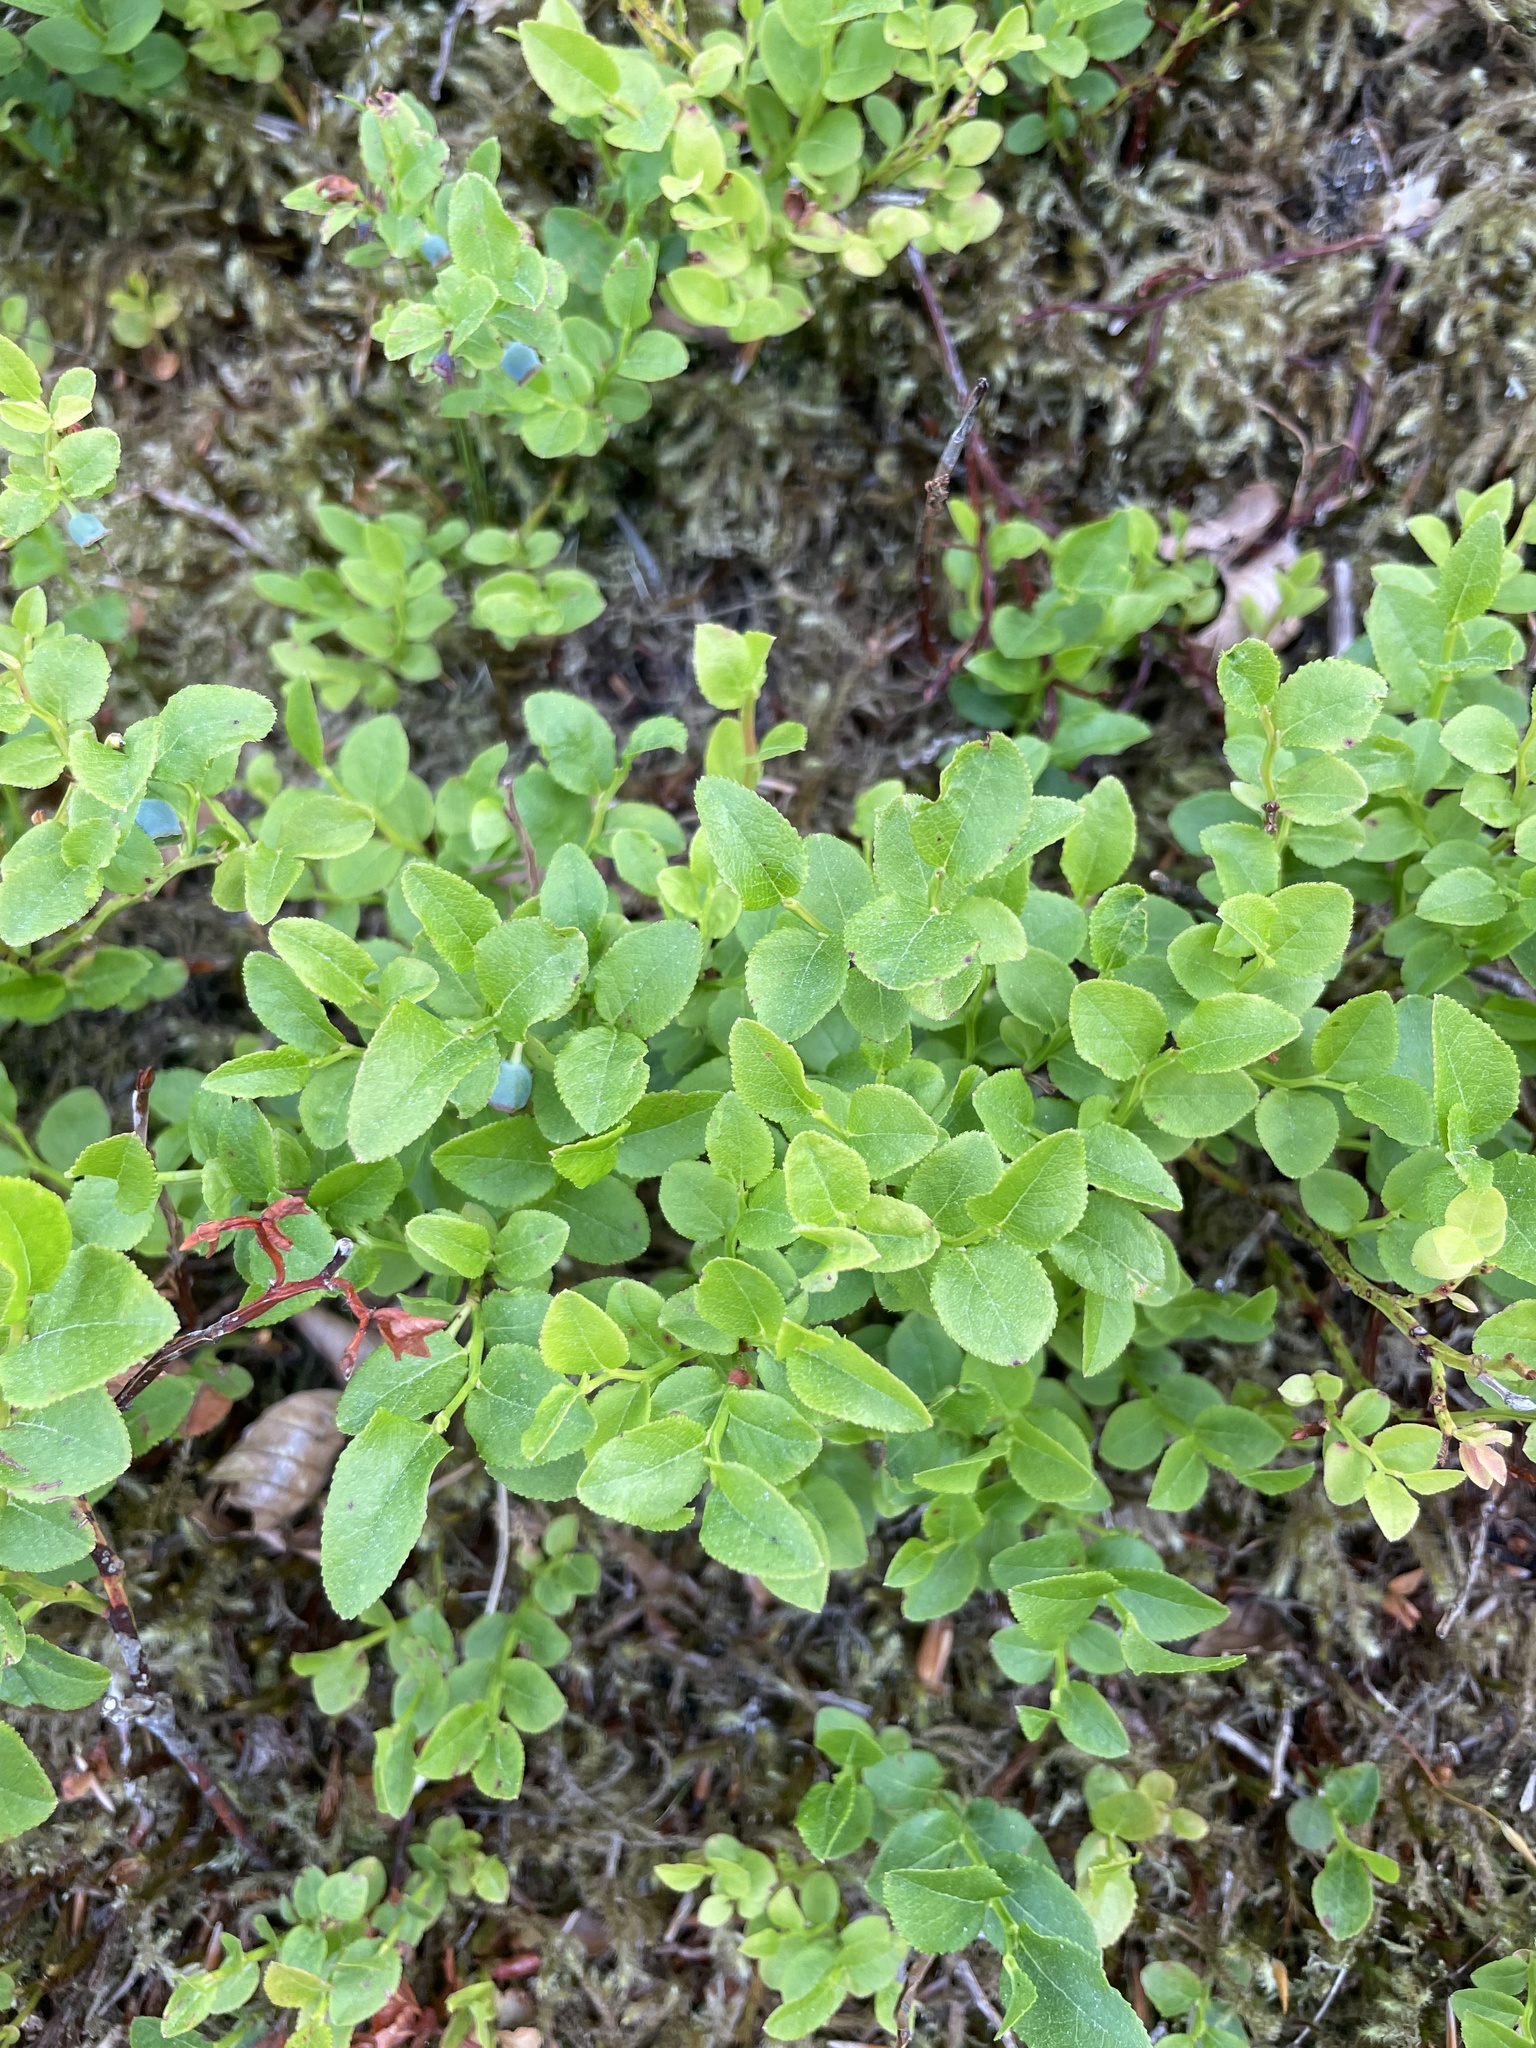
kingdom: Plantae
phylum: Tracheophyta
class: Magnoliopsida
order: Ericales
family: Ericaceae
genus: Vaccinium
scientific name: Vaccinium myrtillus
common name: Bilberry
